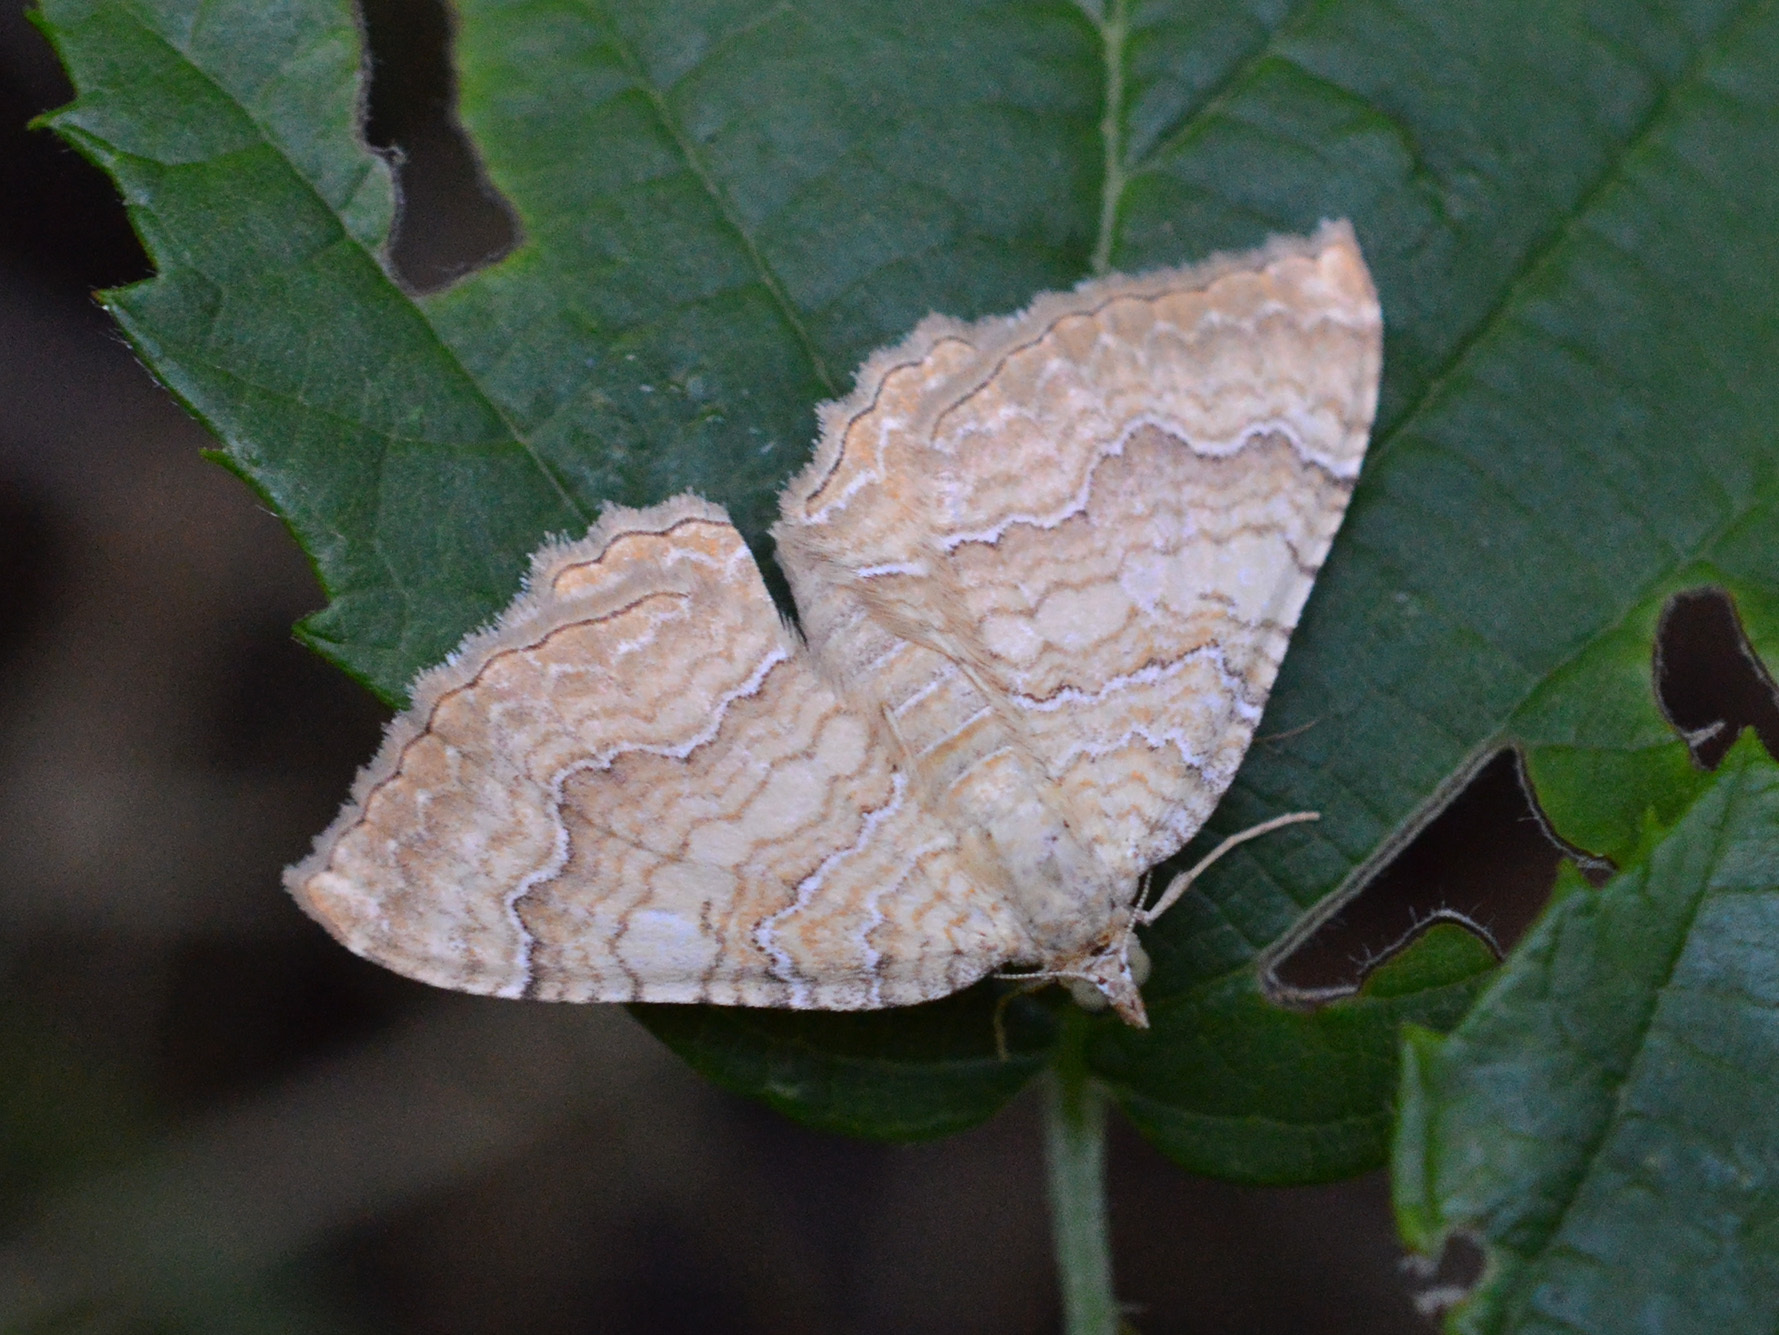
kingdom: Animalia
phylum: Arthropoda
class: Insecta
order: Lepidoptera
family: Geometridae
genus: Camptogramma
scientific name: Camptogramma bilineata
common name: Yellow shell
